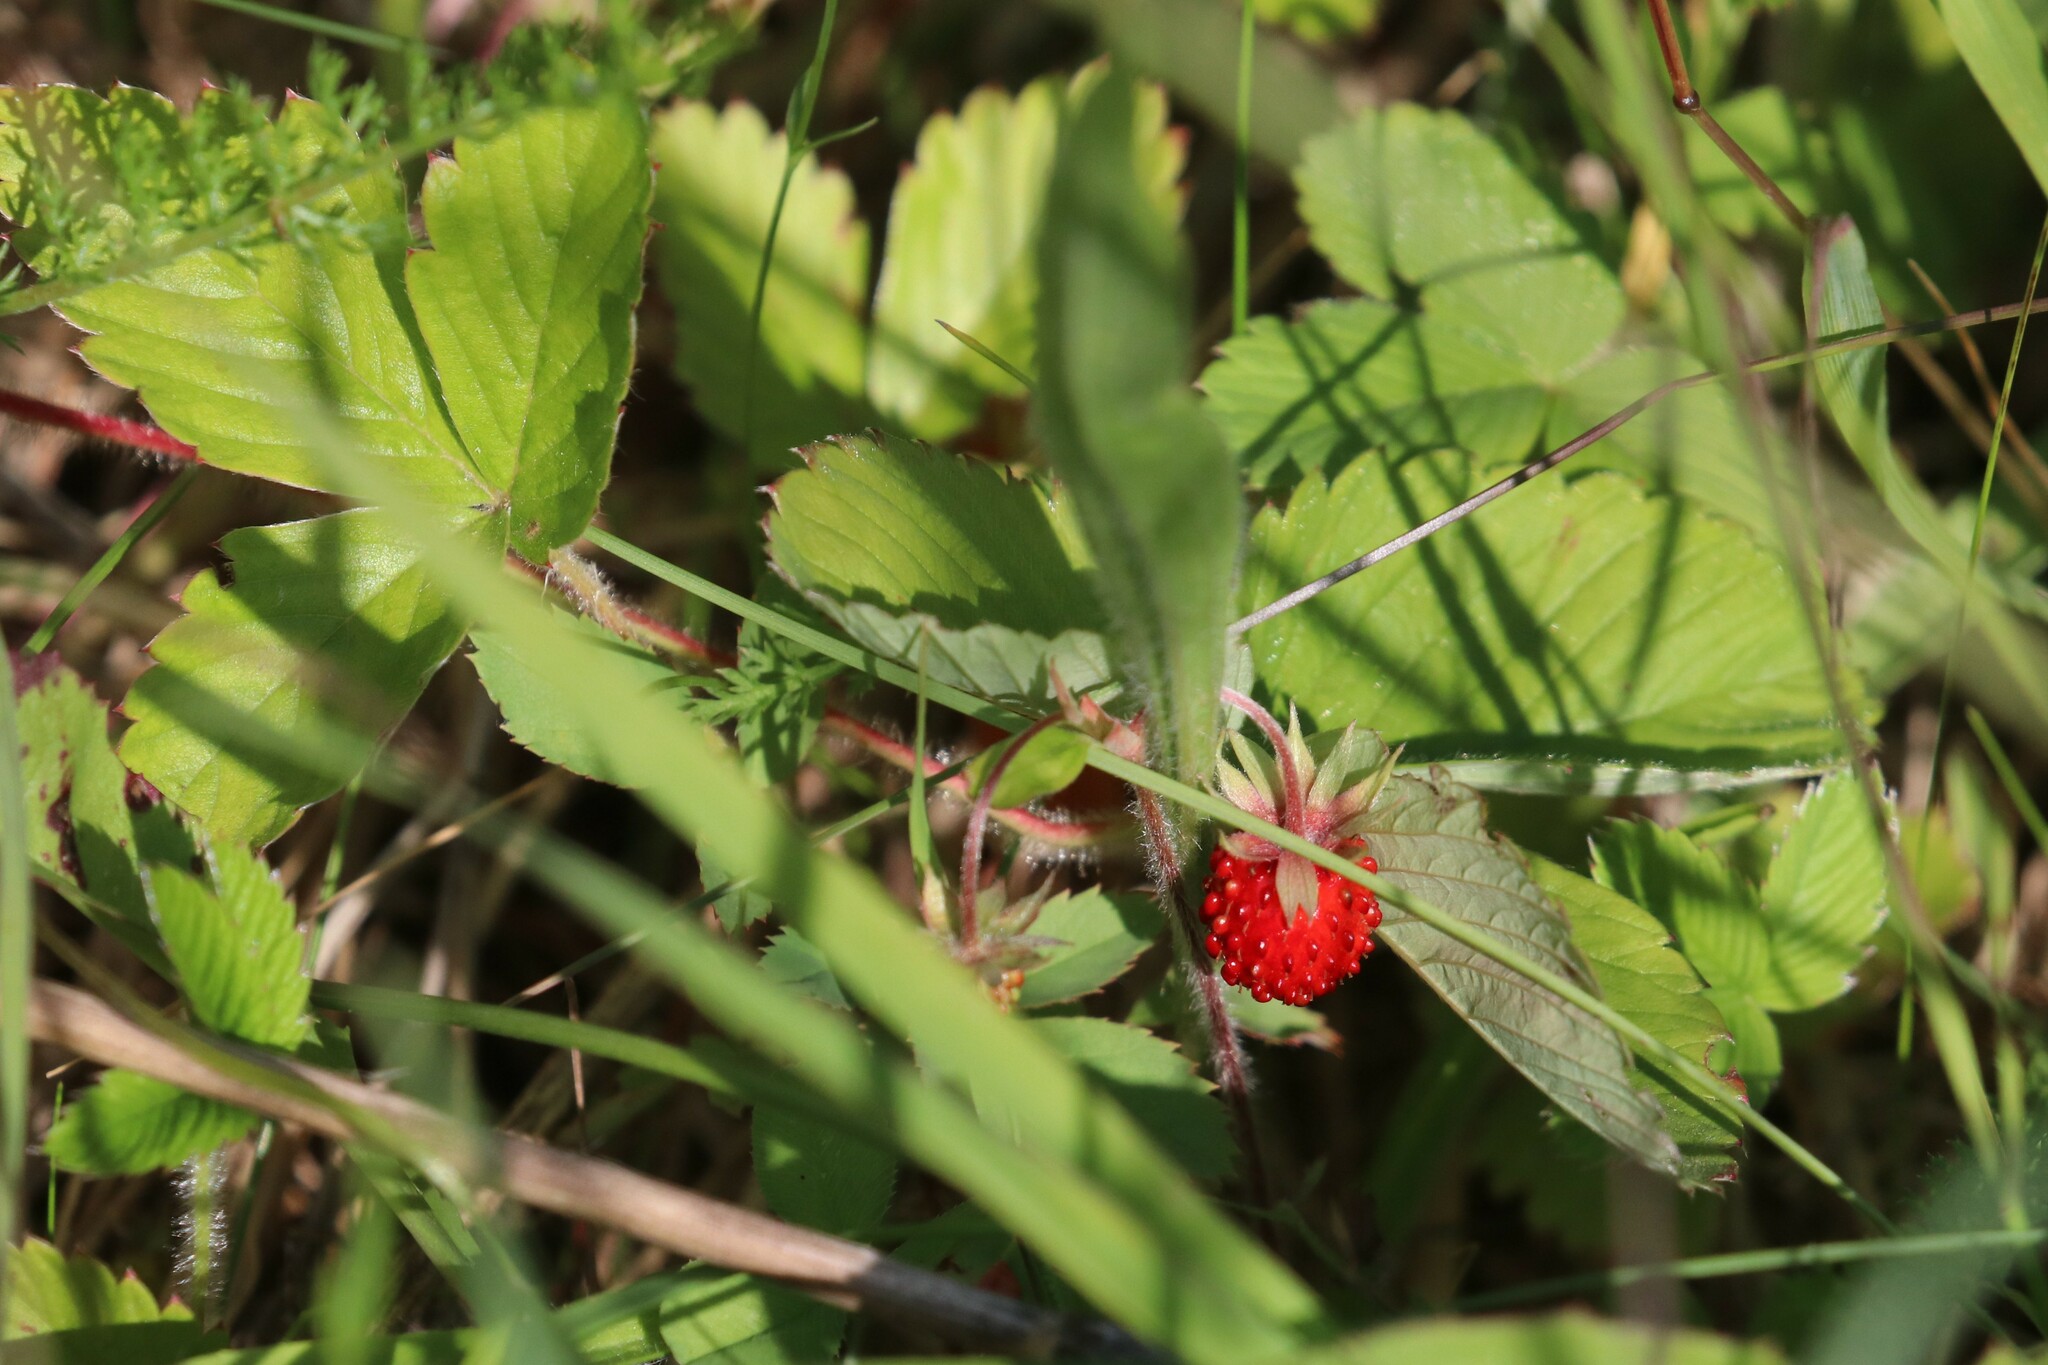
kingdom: Plantae
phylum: Tracheophyta
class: Magnoliopsida
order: Rosales
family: Rosaceae
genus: Fragaria
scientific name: Fragaria viridis
